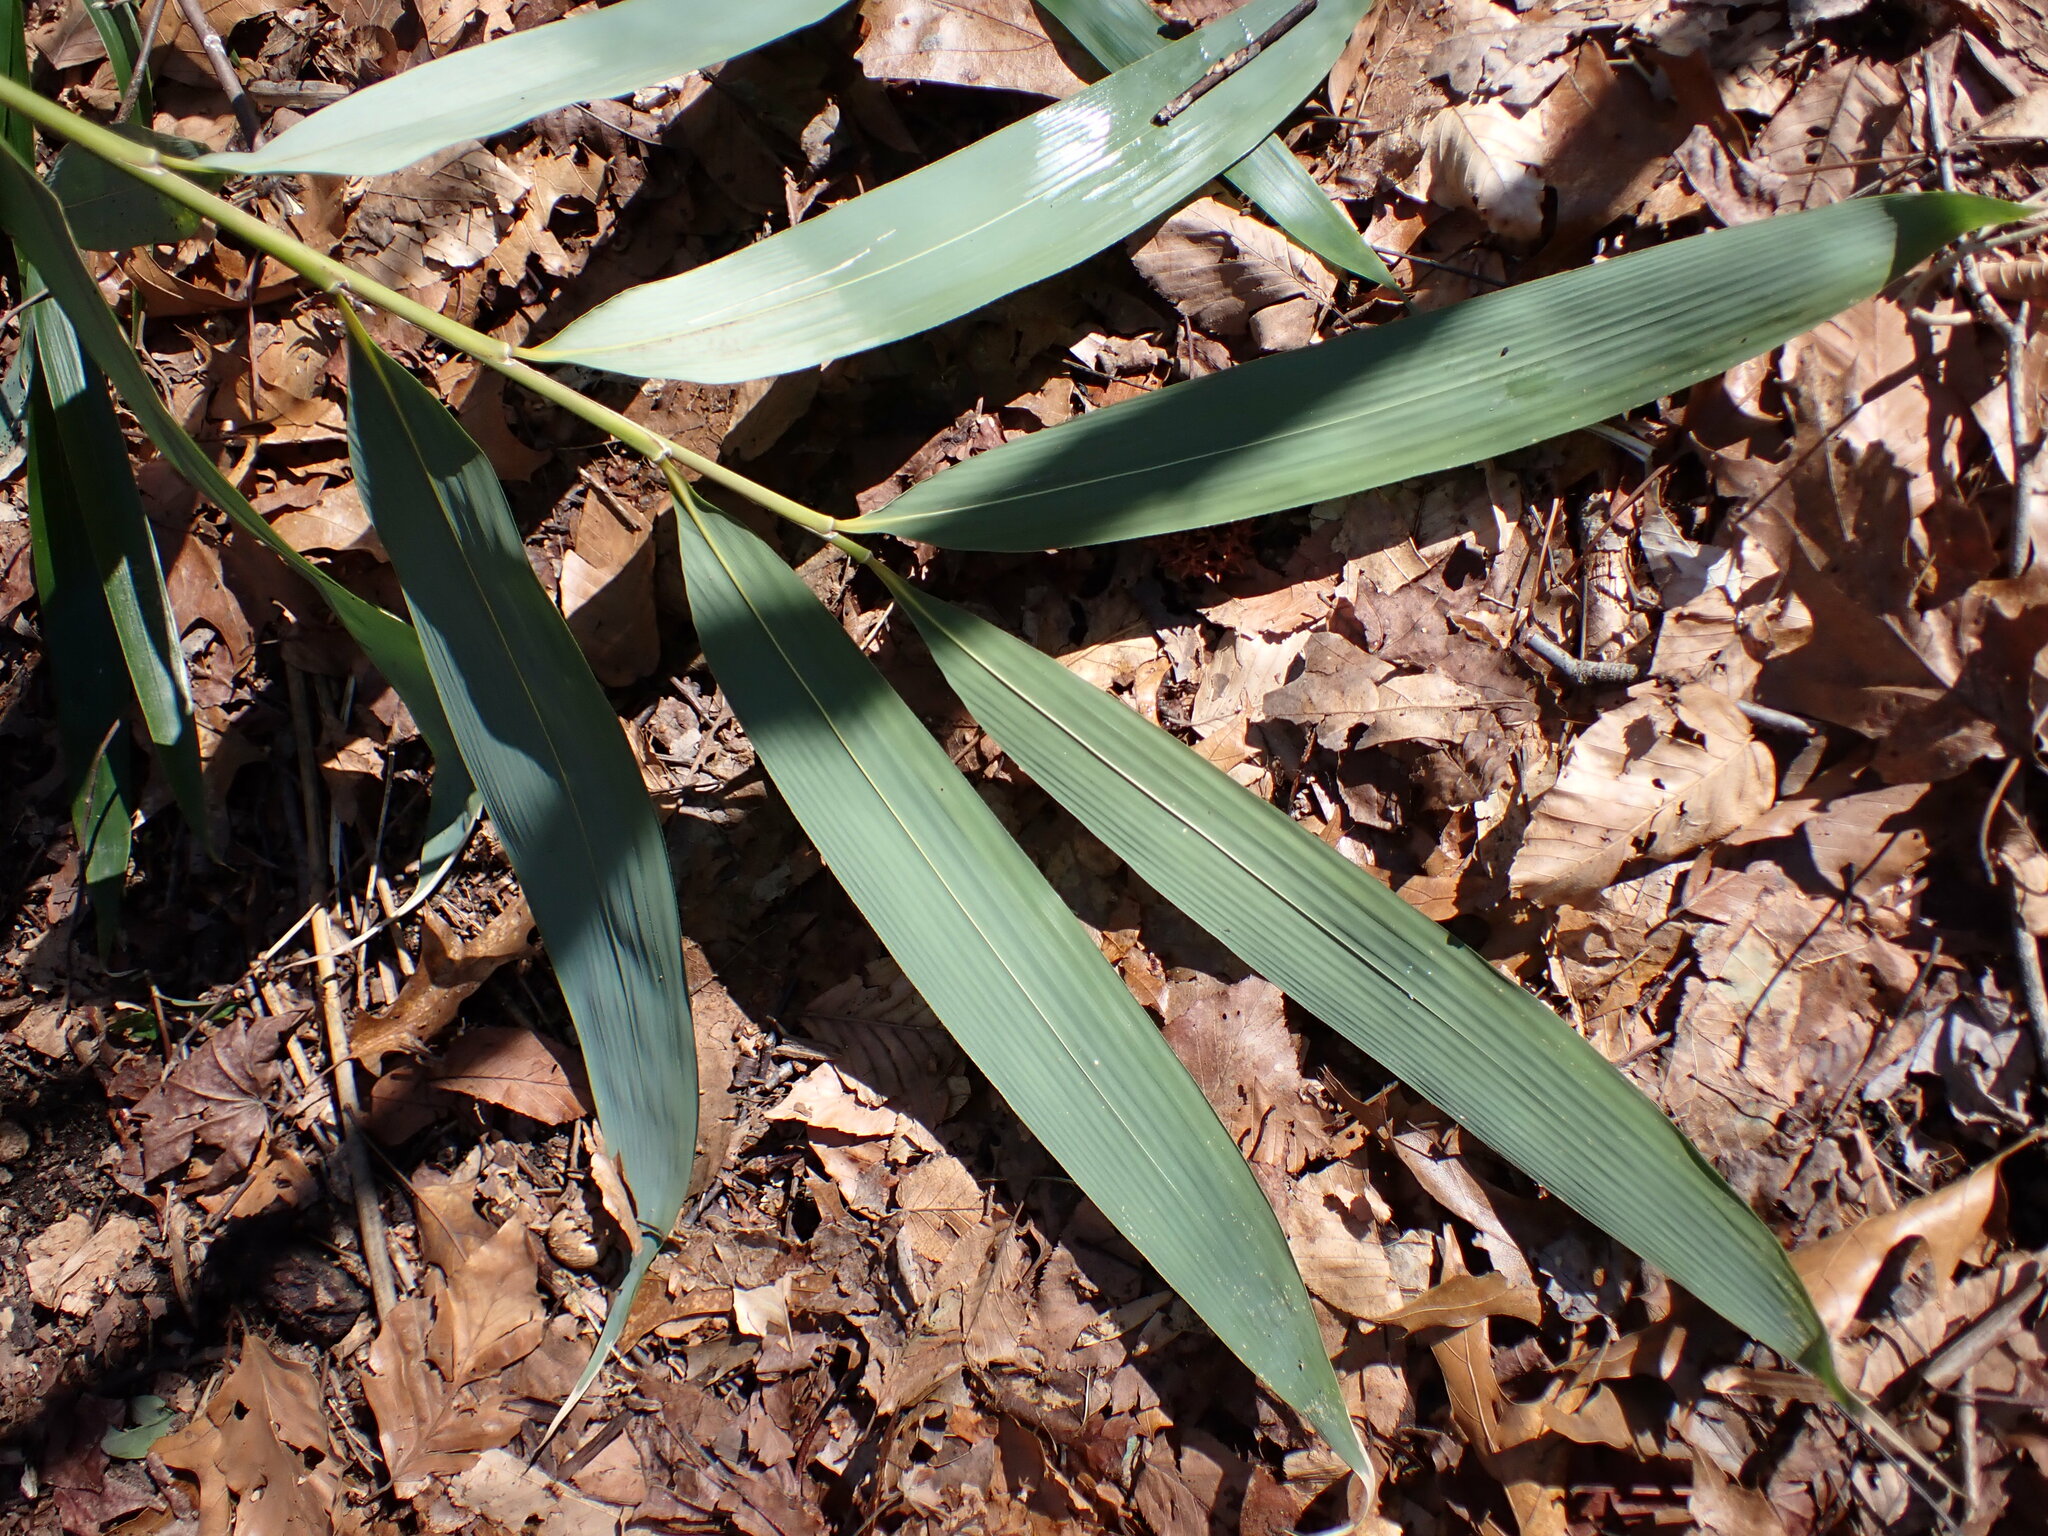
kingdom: Plantae
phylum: Tracheophyta
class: Liliopsida
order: Poales
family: Poaceae
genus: Pseudosasa
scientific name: Pseudosasa japonica
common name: Arrow bamboo
